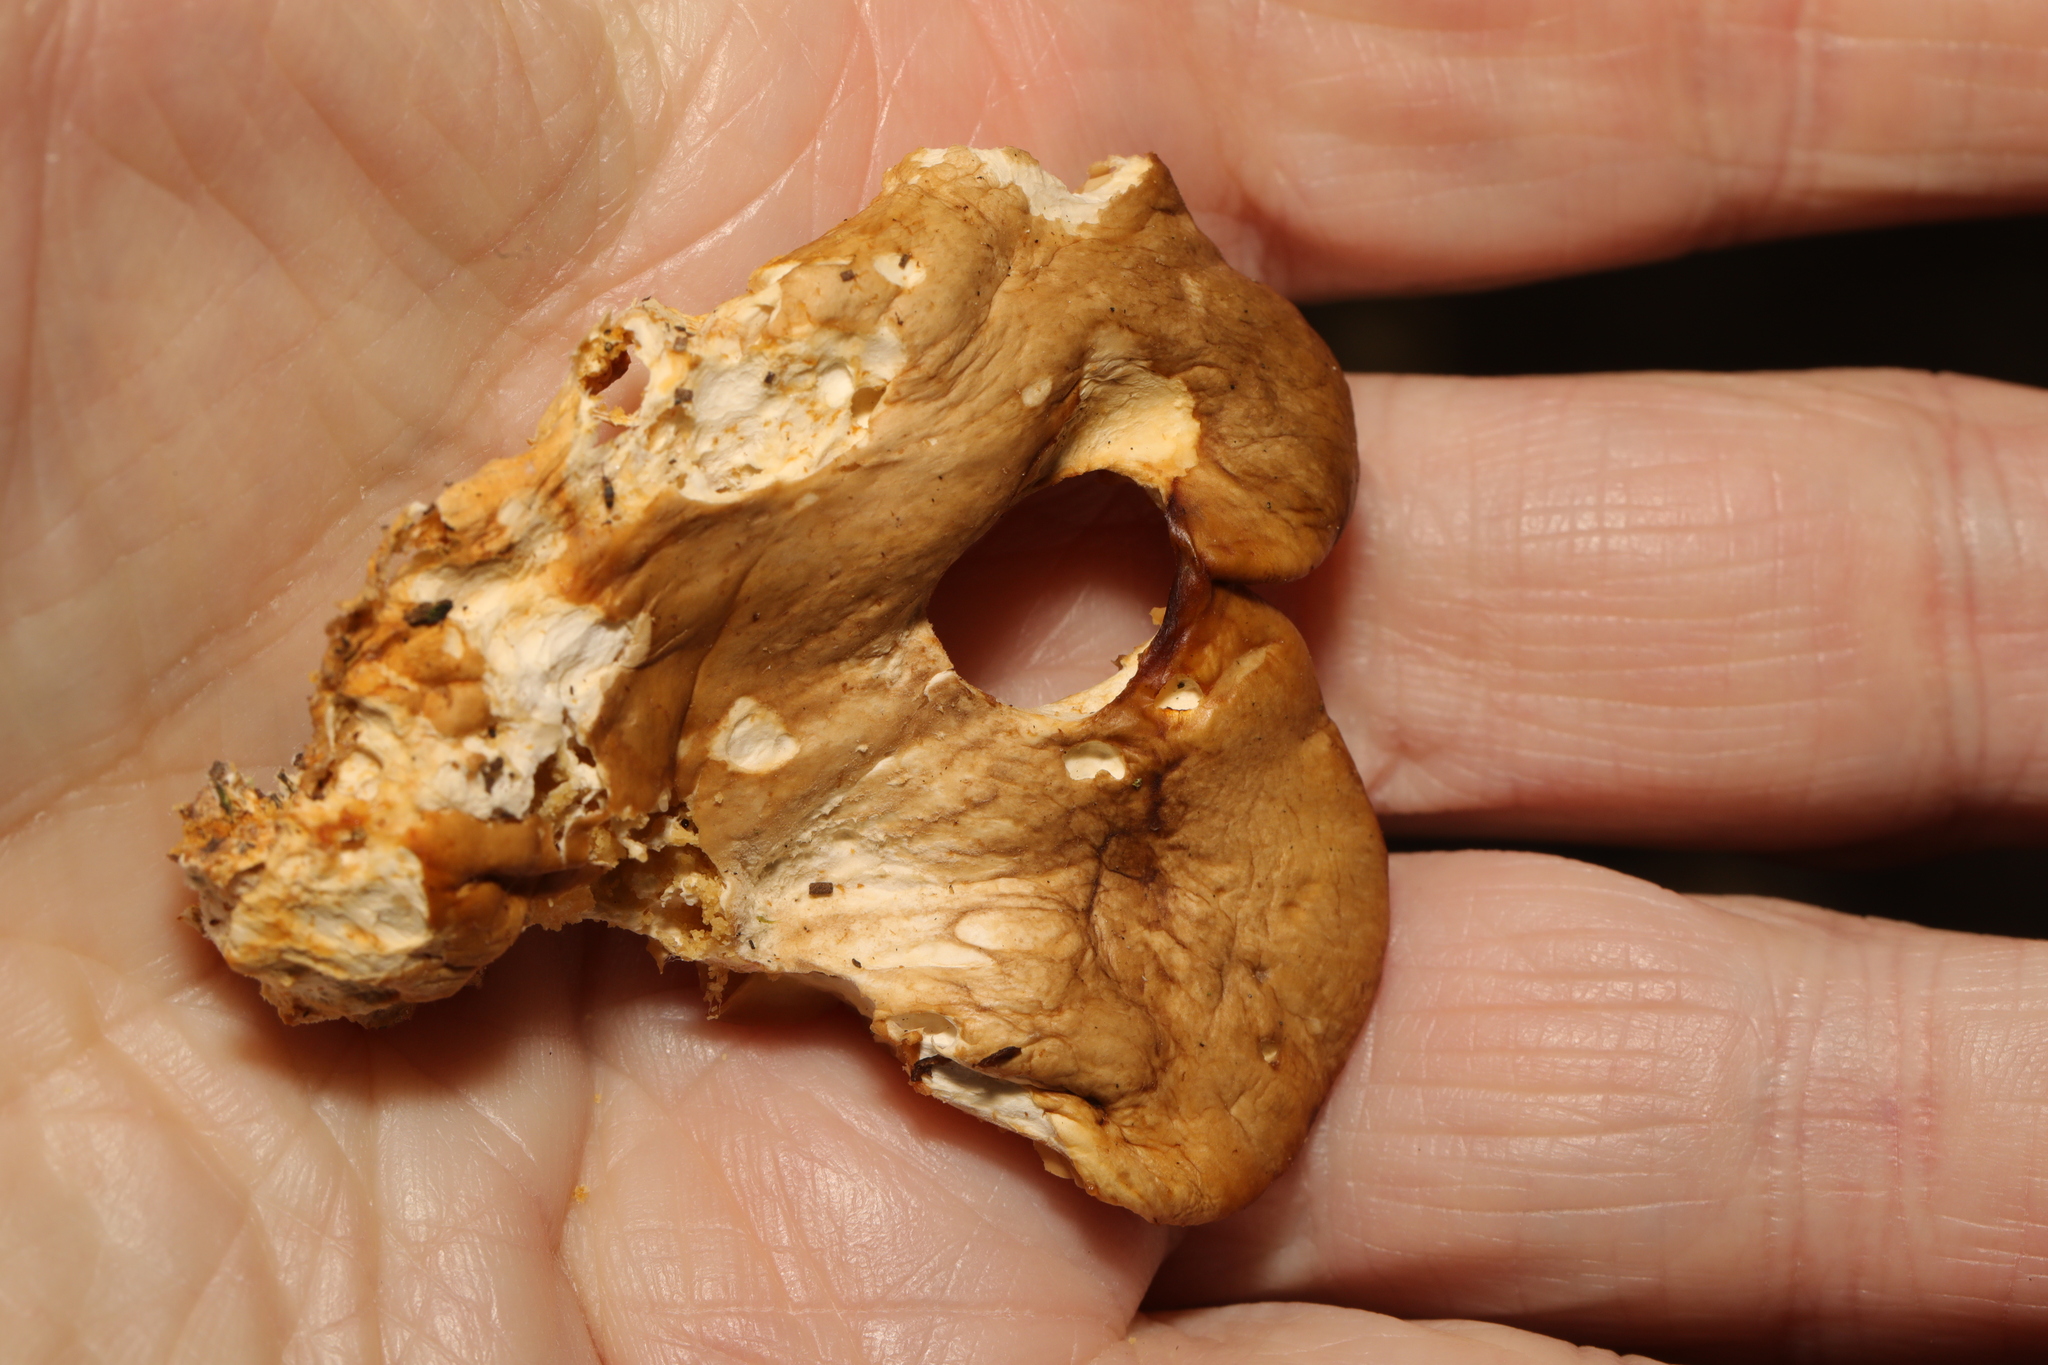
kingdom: Fungi
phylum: Basidiomycota
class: Agaricomycetes
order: Agaricales
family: Pleurotaceae
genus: Pleurotus
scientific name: Pleurotus ostreatus
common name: Oyster mushroom
